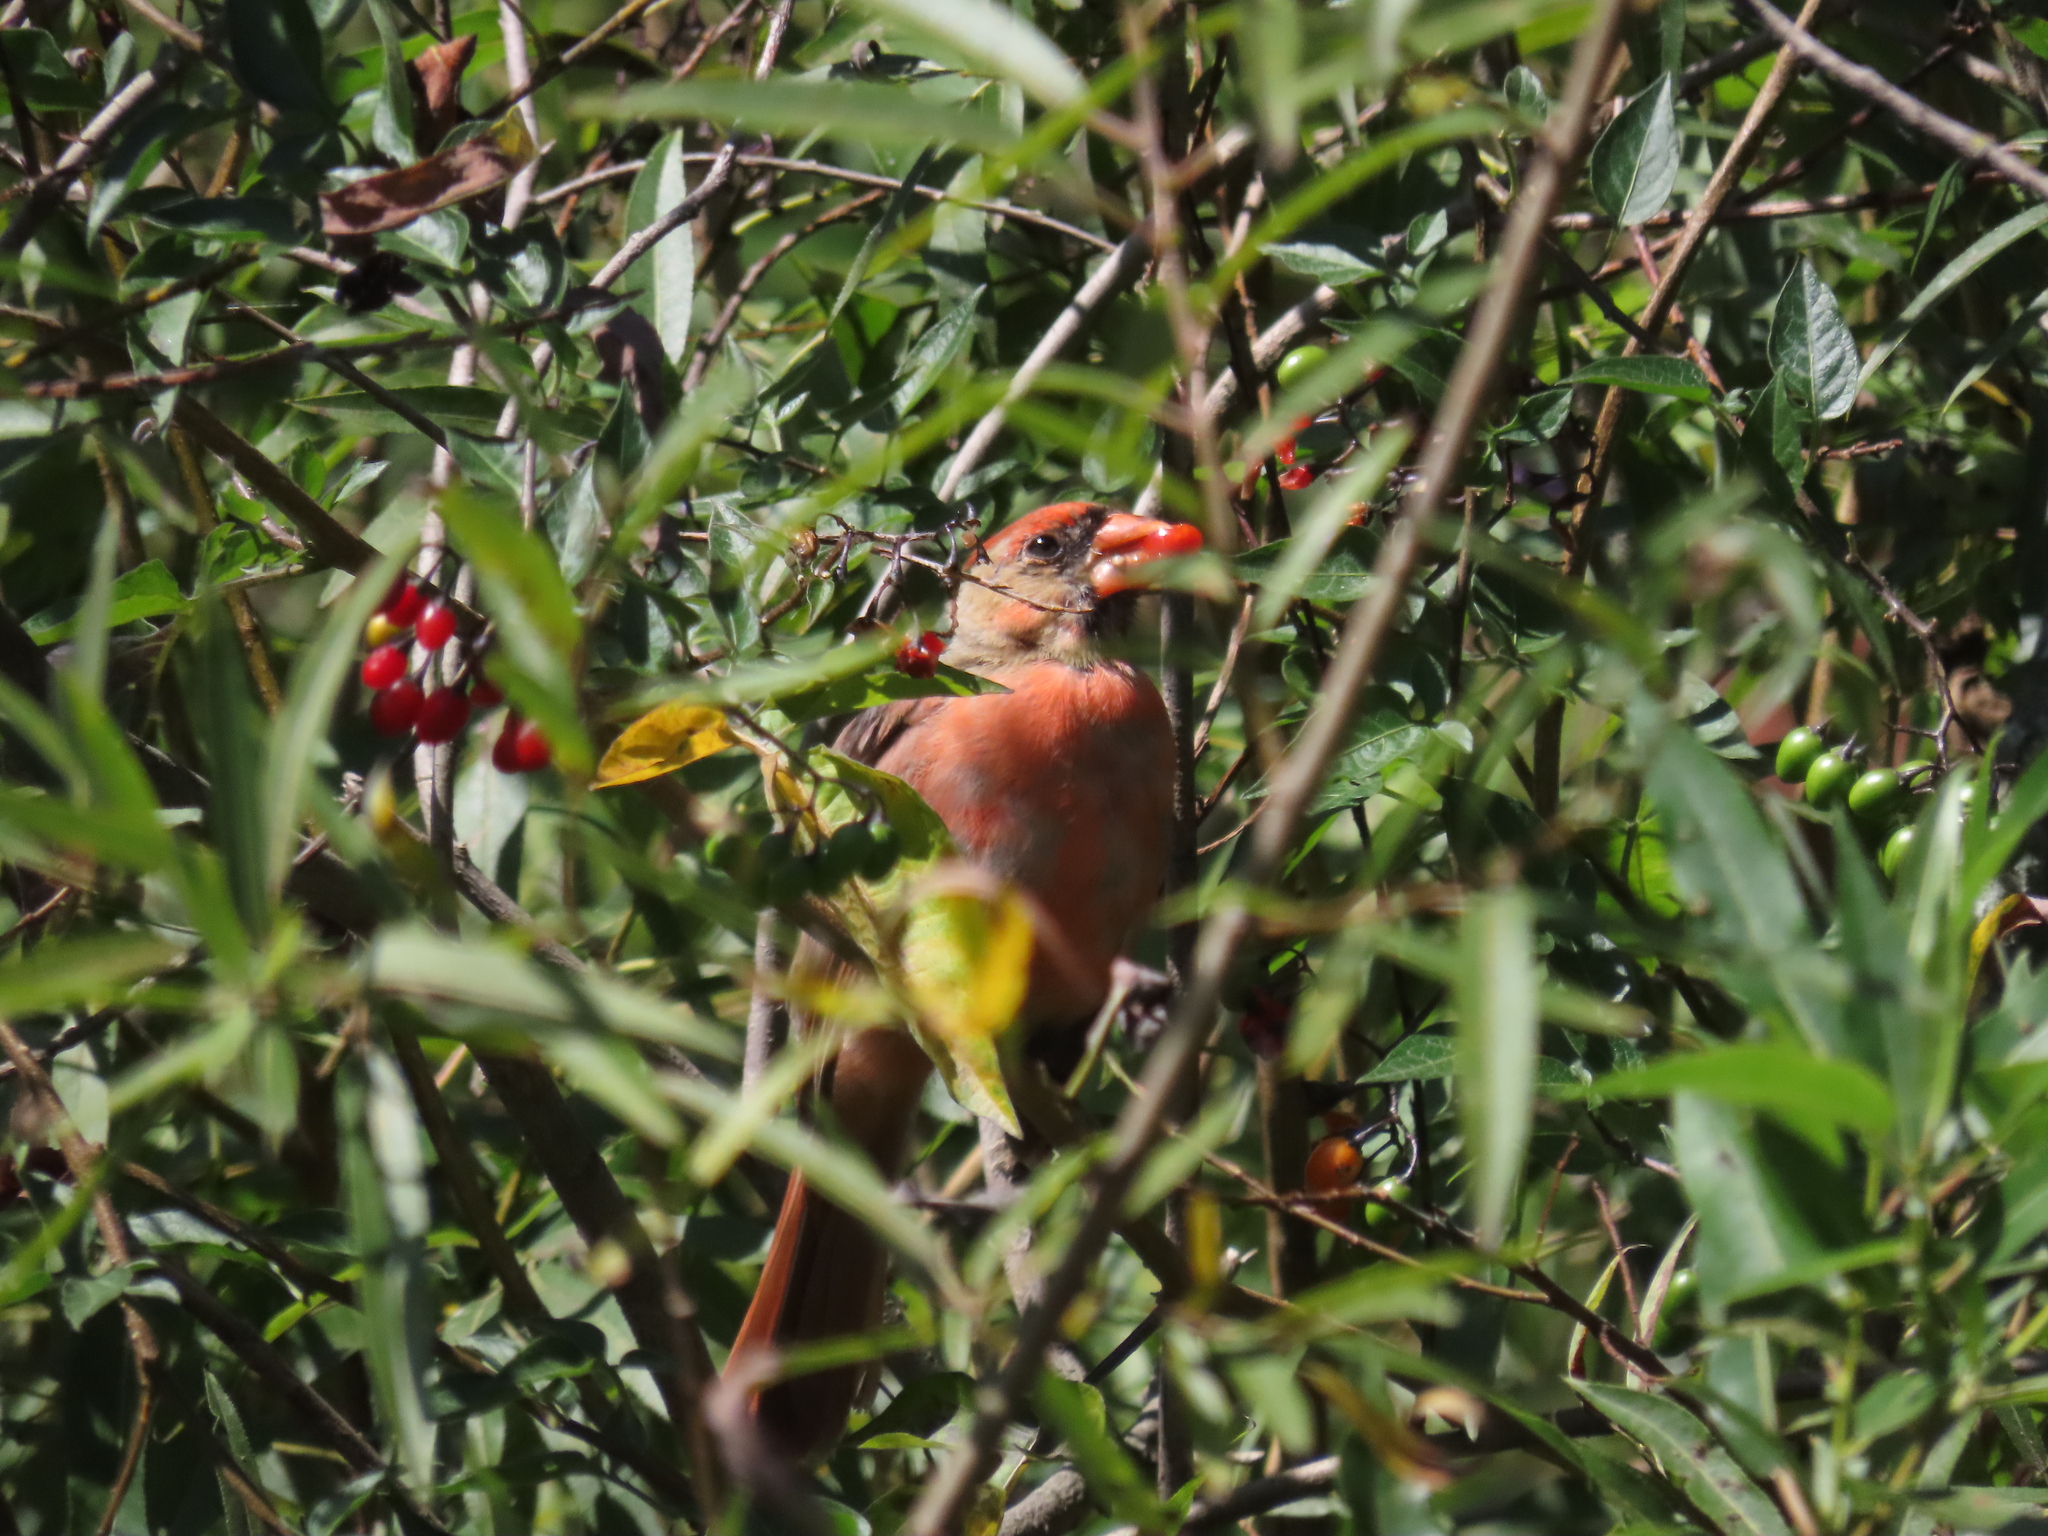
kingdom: Animalia
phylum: Chordata
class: Aves
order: Passeriformes
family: Cardinalidae
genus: Cardinalis
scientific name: Cardinalis cardinalis
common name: Northern cardinal
